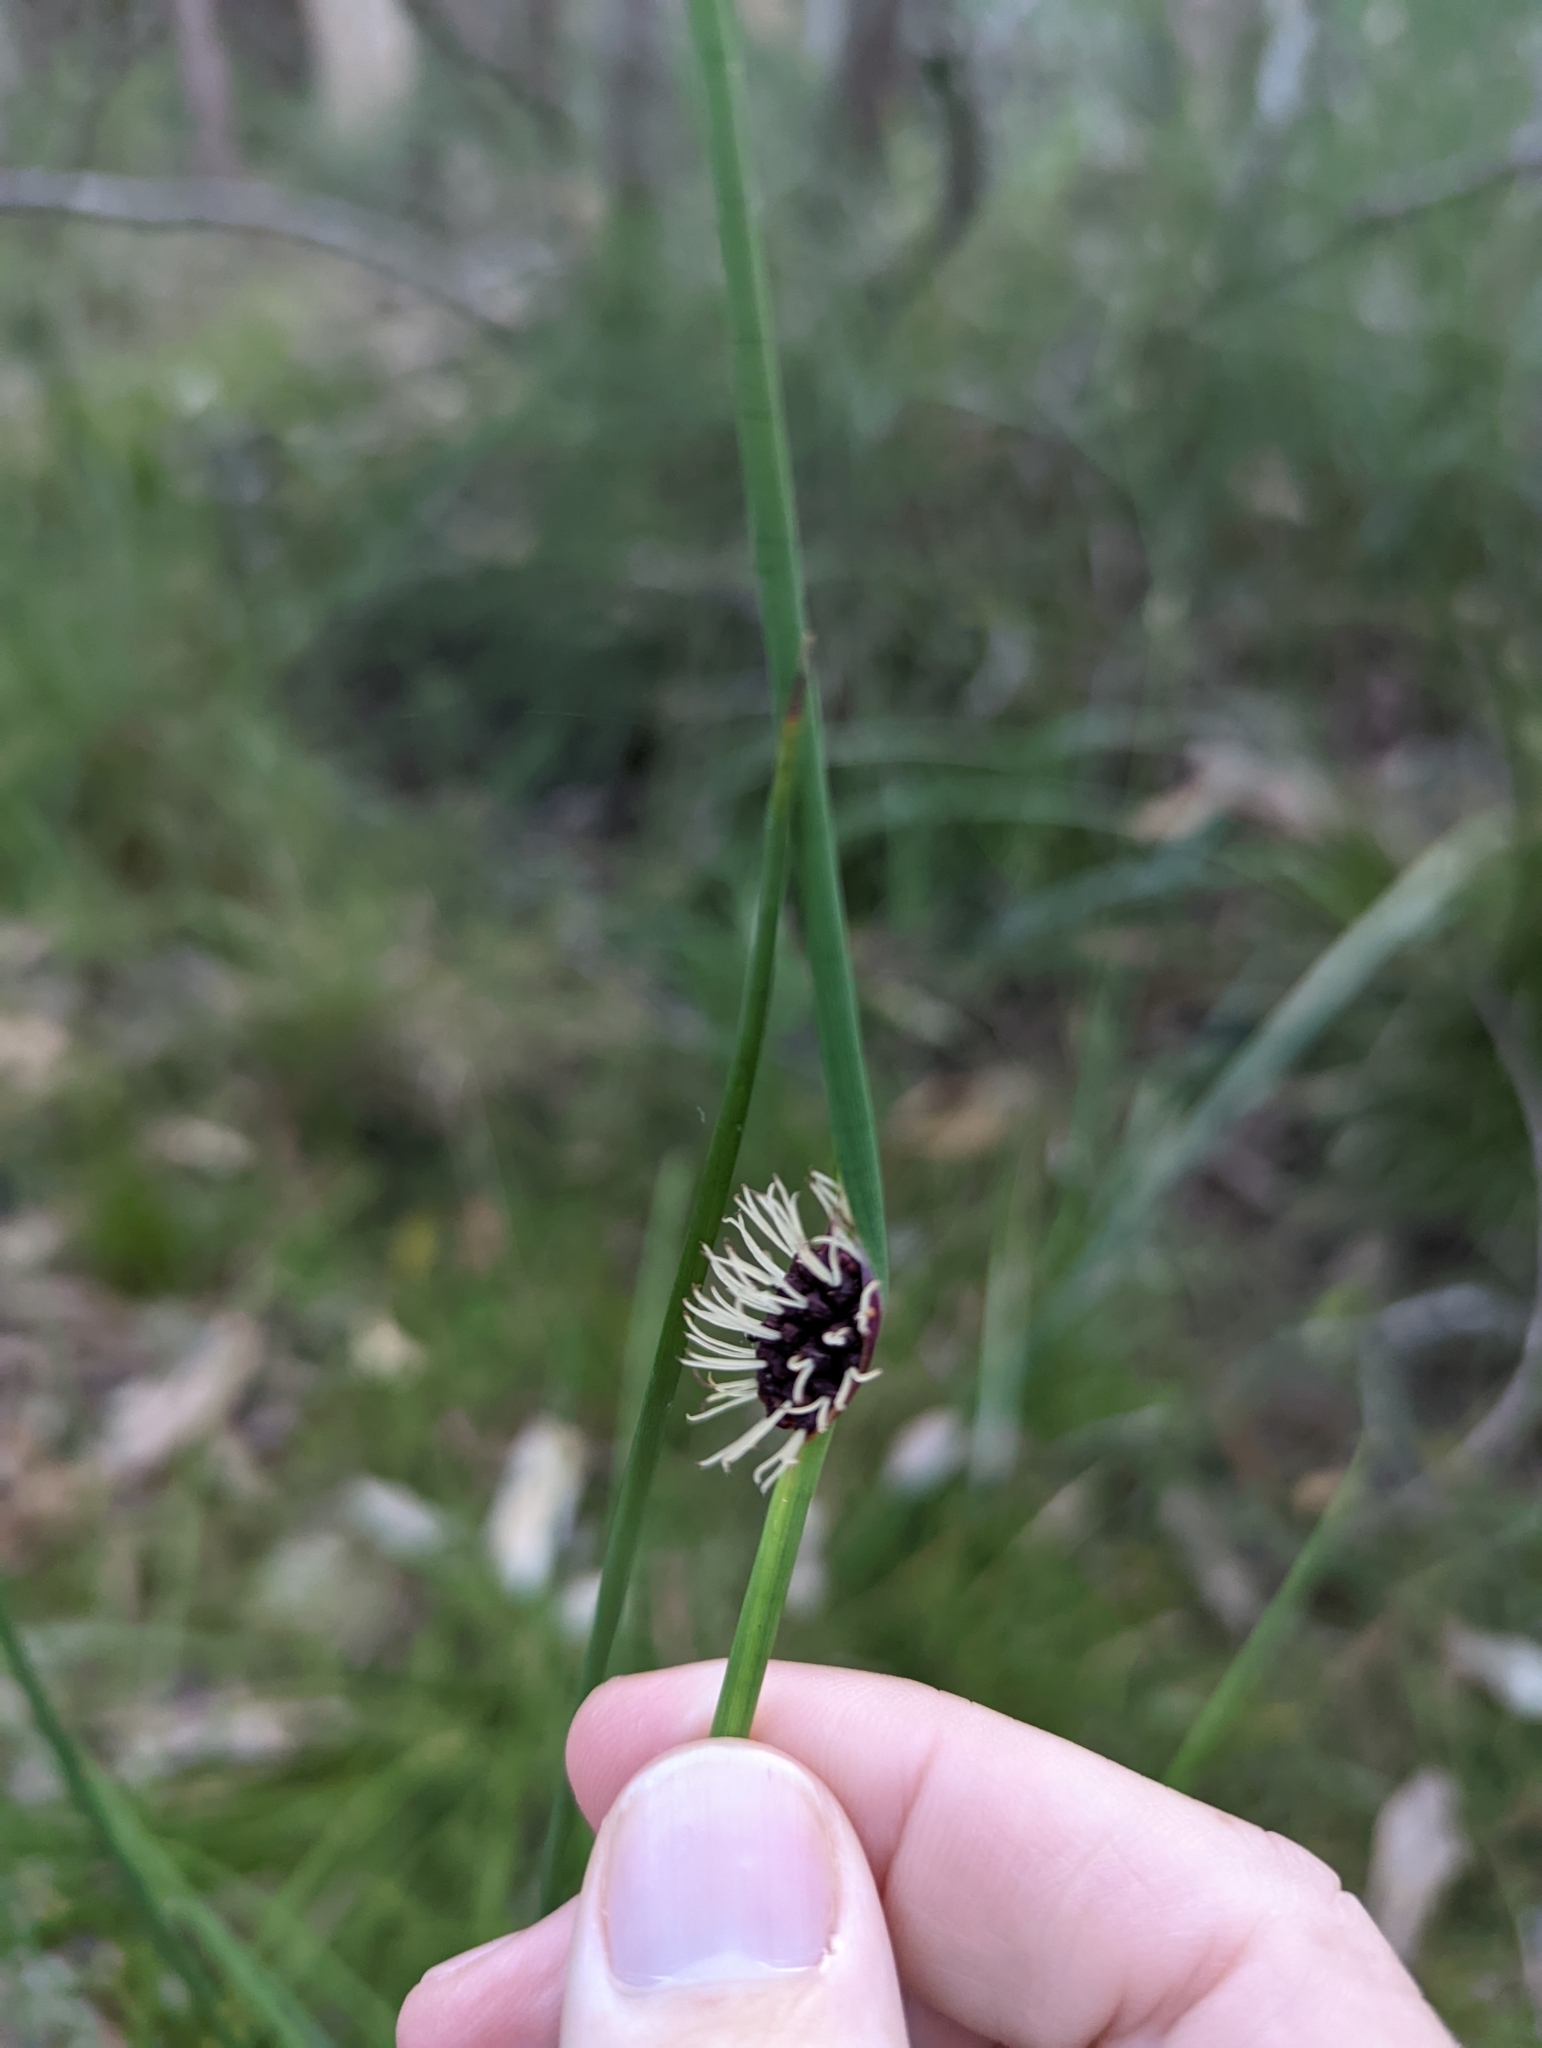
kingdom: Plantae
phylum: Tracheophyta
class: Liliopsida
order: Poales
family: Cyperaceae
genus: Chorizandra
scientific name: Chorizandra cymbaria
